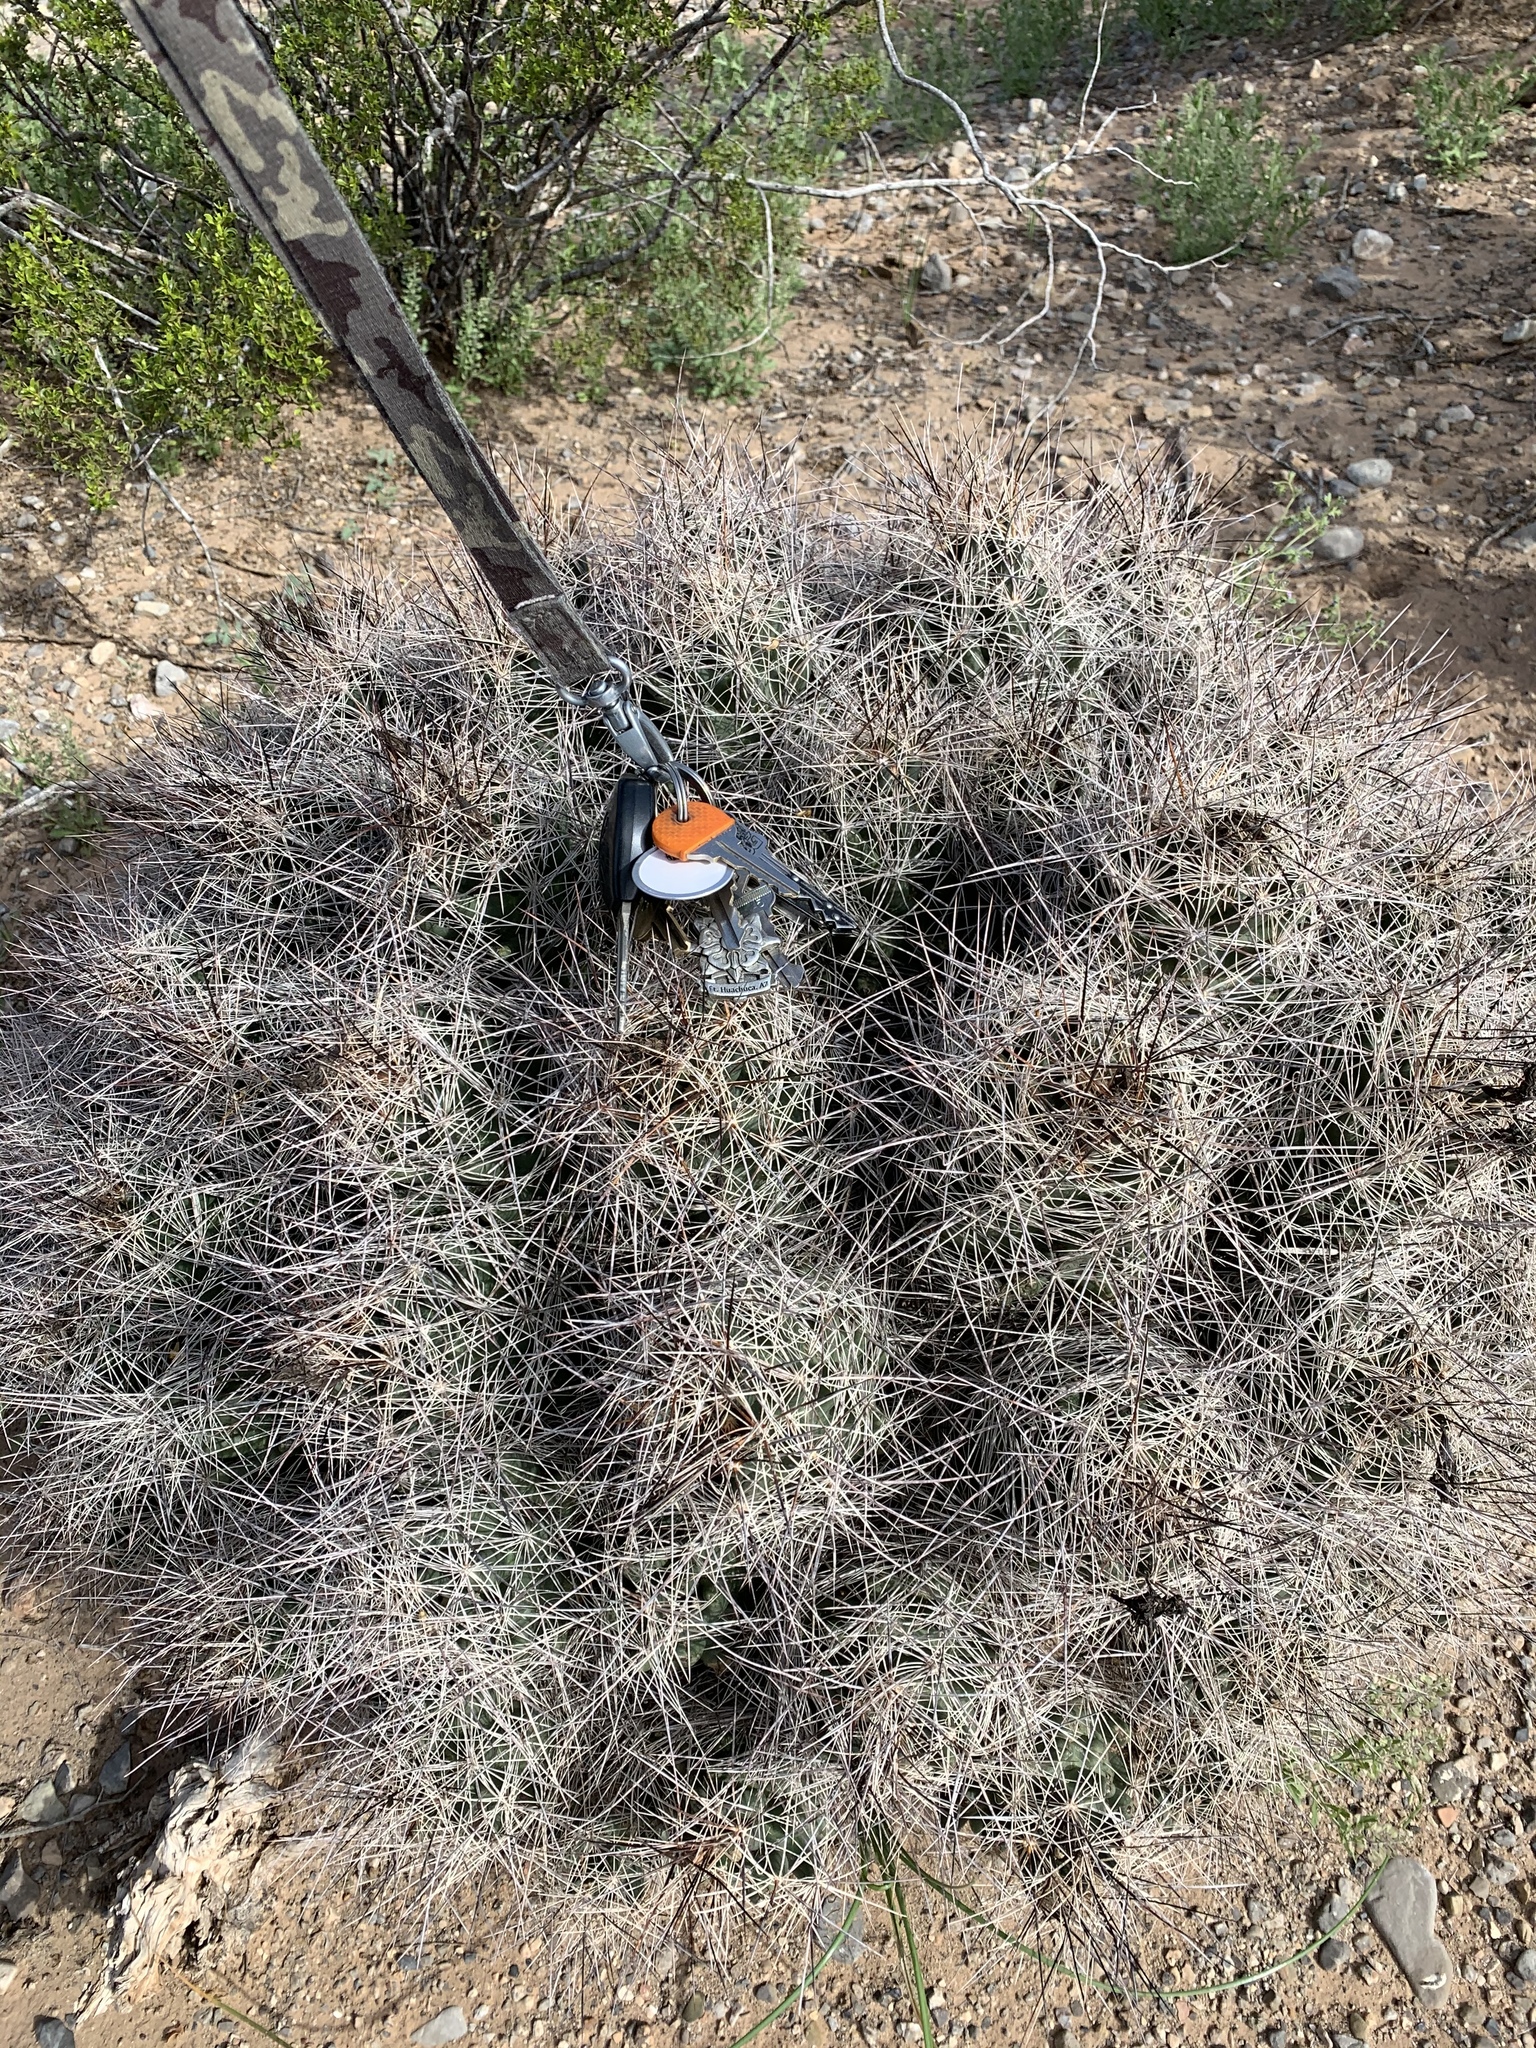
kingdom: Plantae
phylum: Tracheophyta
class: Magnoliopsida
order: Caryophyllales
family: Cactaceae
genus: Coryphantha
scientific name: Coryphantha macromeris
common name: Nipple beehive cactus
